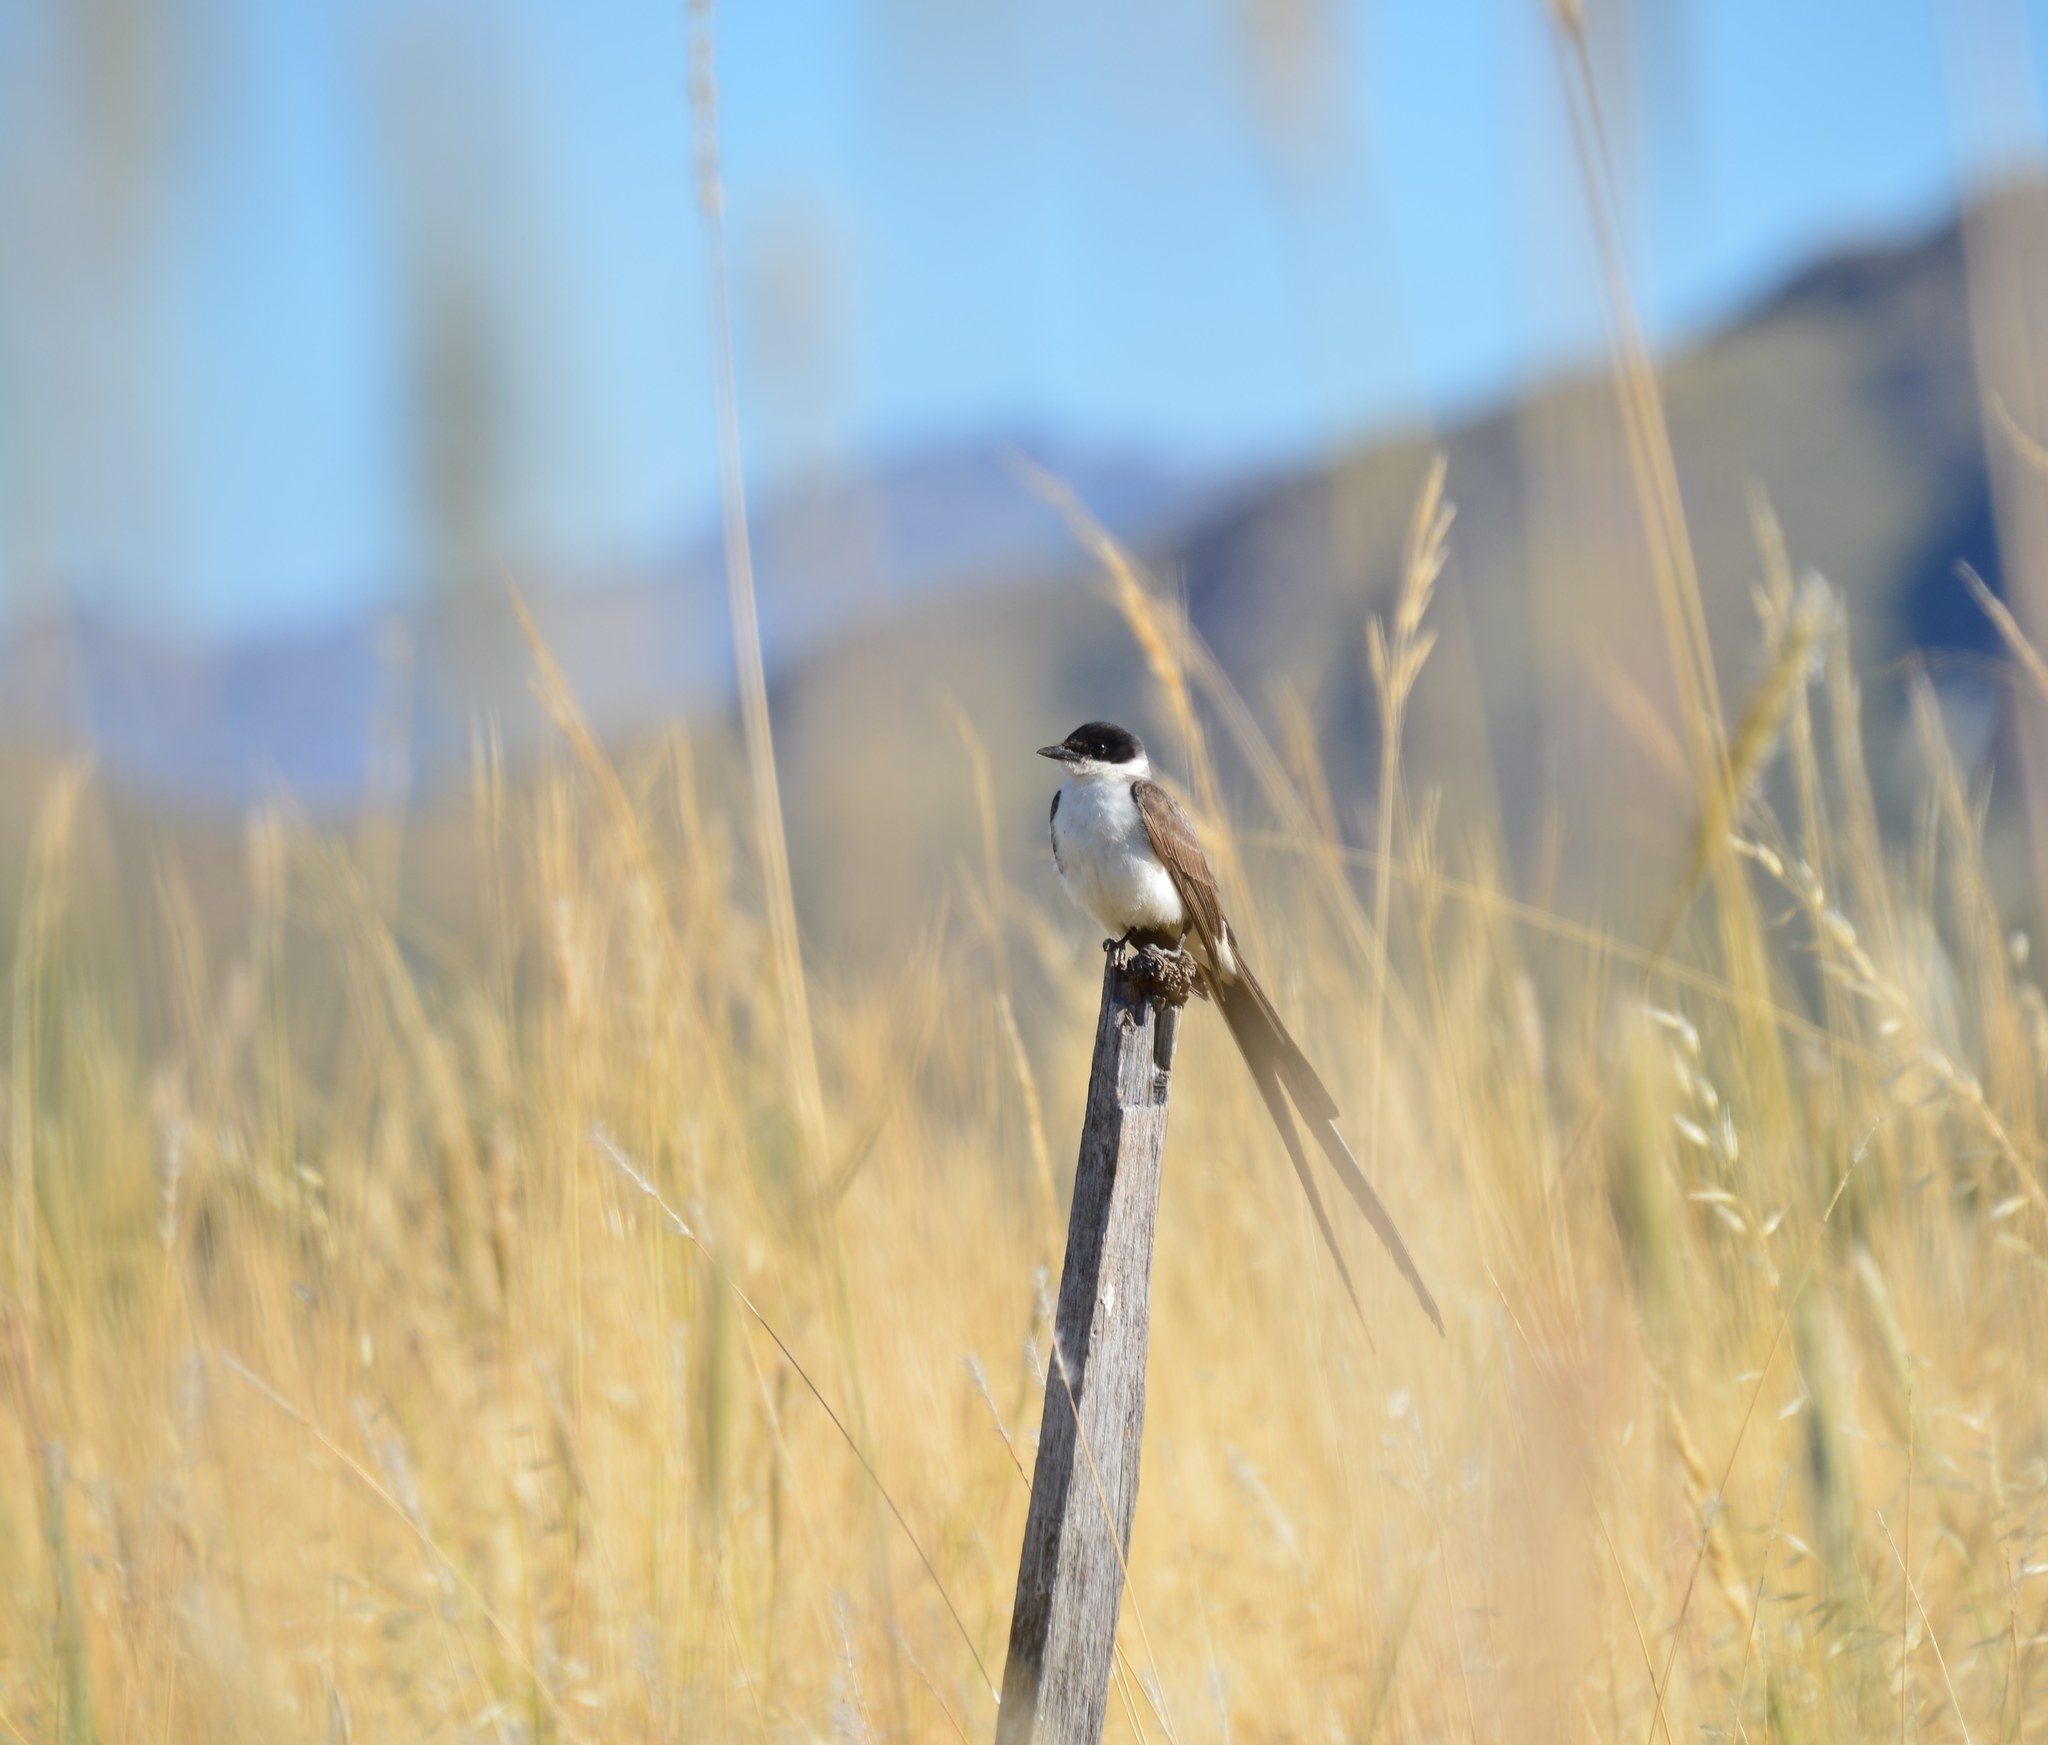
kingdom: Animalia
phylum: Chordata
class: Aves
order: Passeriformes
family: Tyrannidae
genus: Tyrannus
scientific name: Tyrannus savana
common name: Fork-tailed flycatcher
